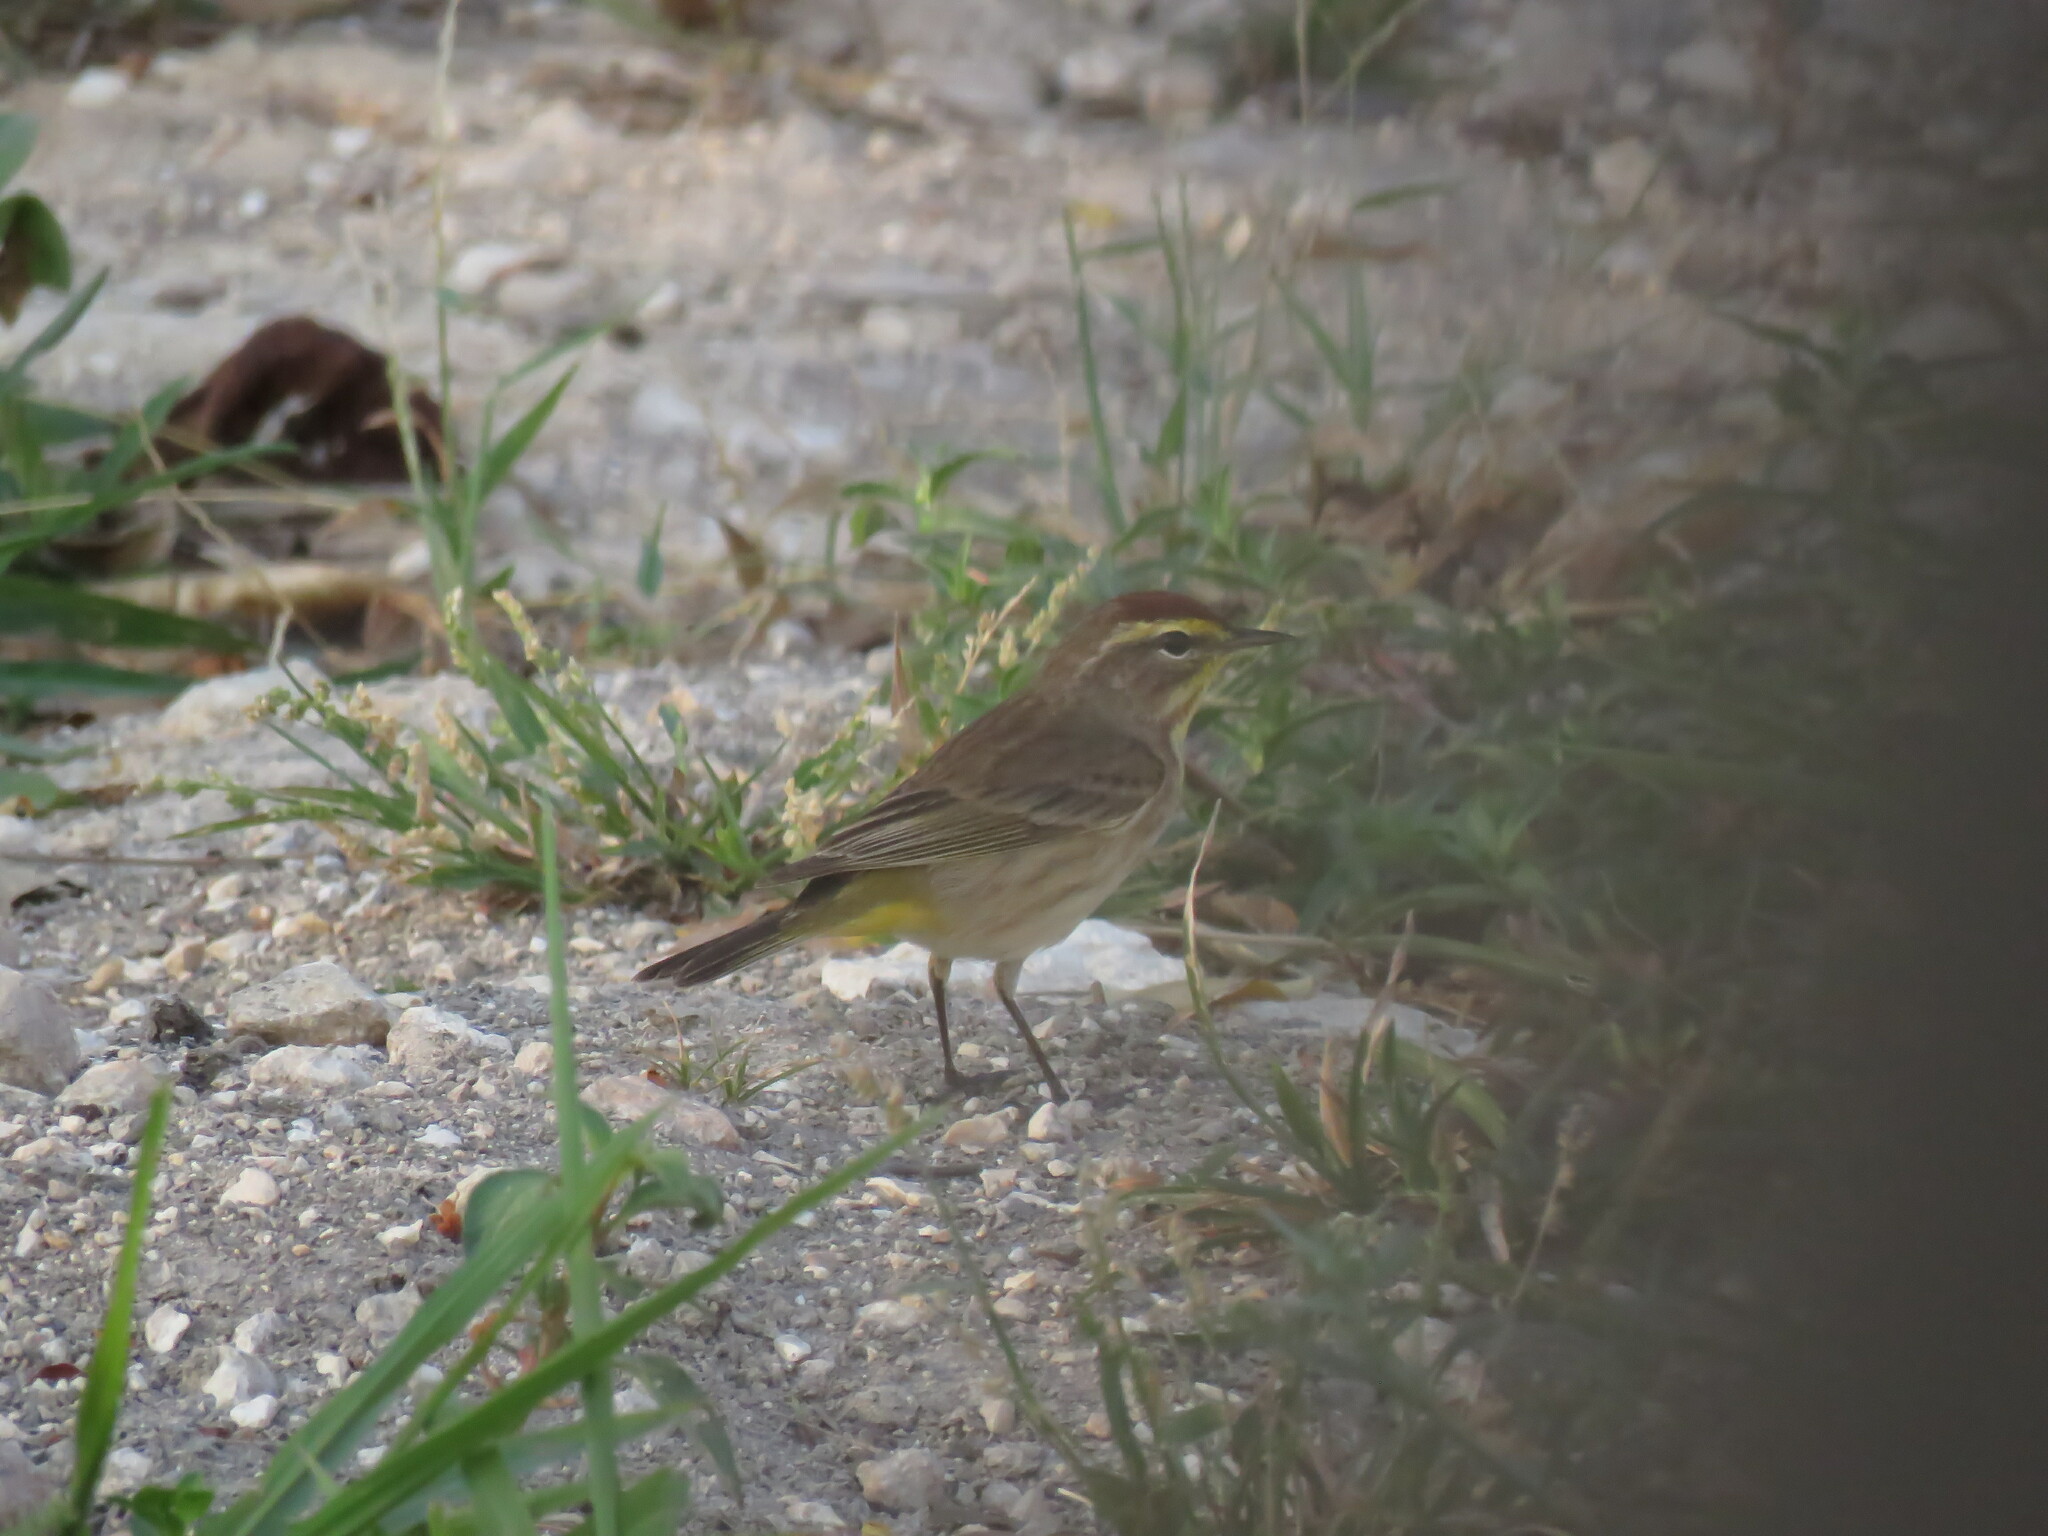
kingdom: Animalia
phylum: Chordata
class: Aves
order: Passeriformes
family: Parulidae
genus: Setophaga
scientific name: Setophaga palmarum
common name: Palm warbler
